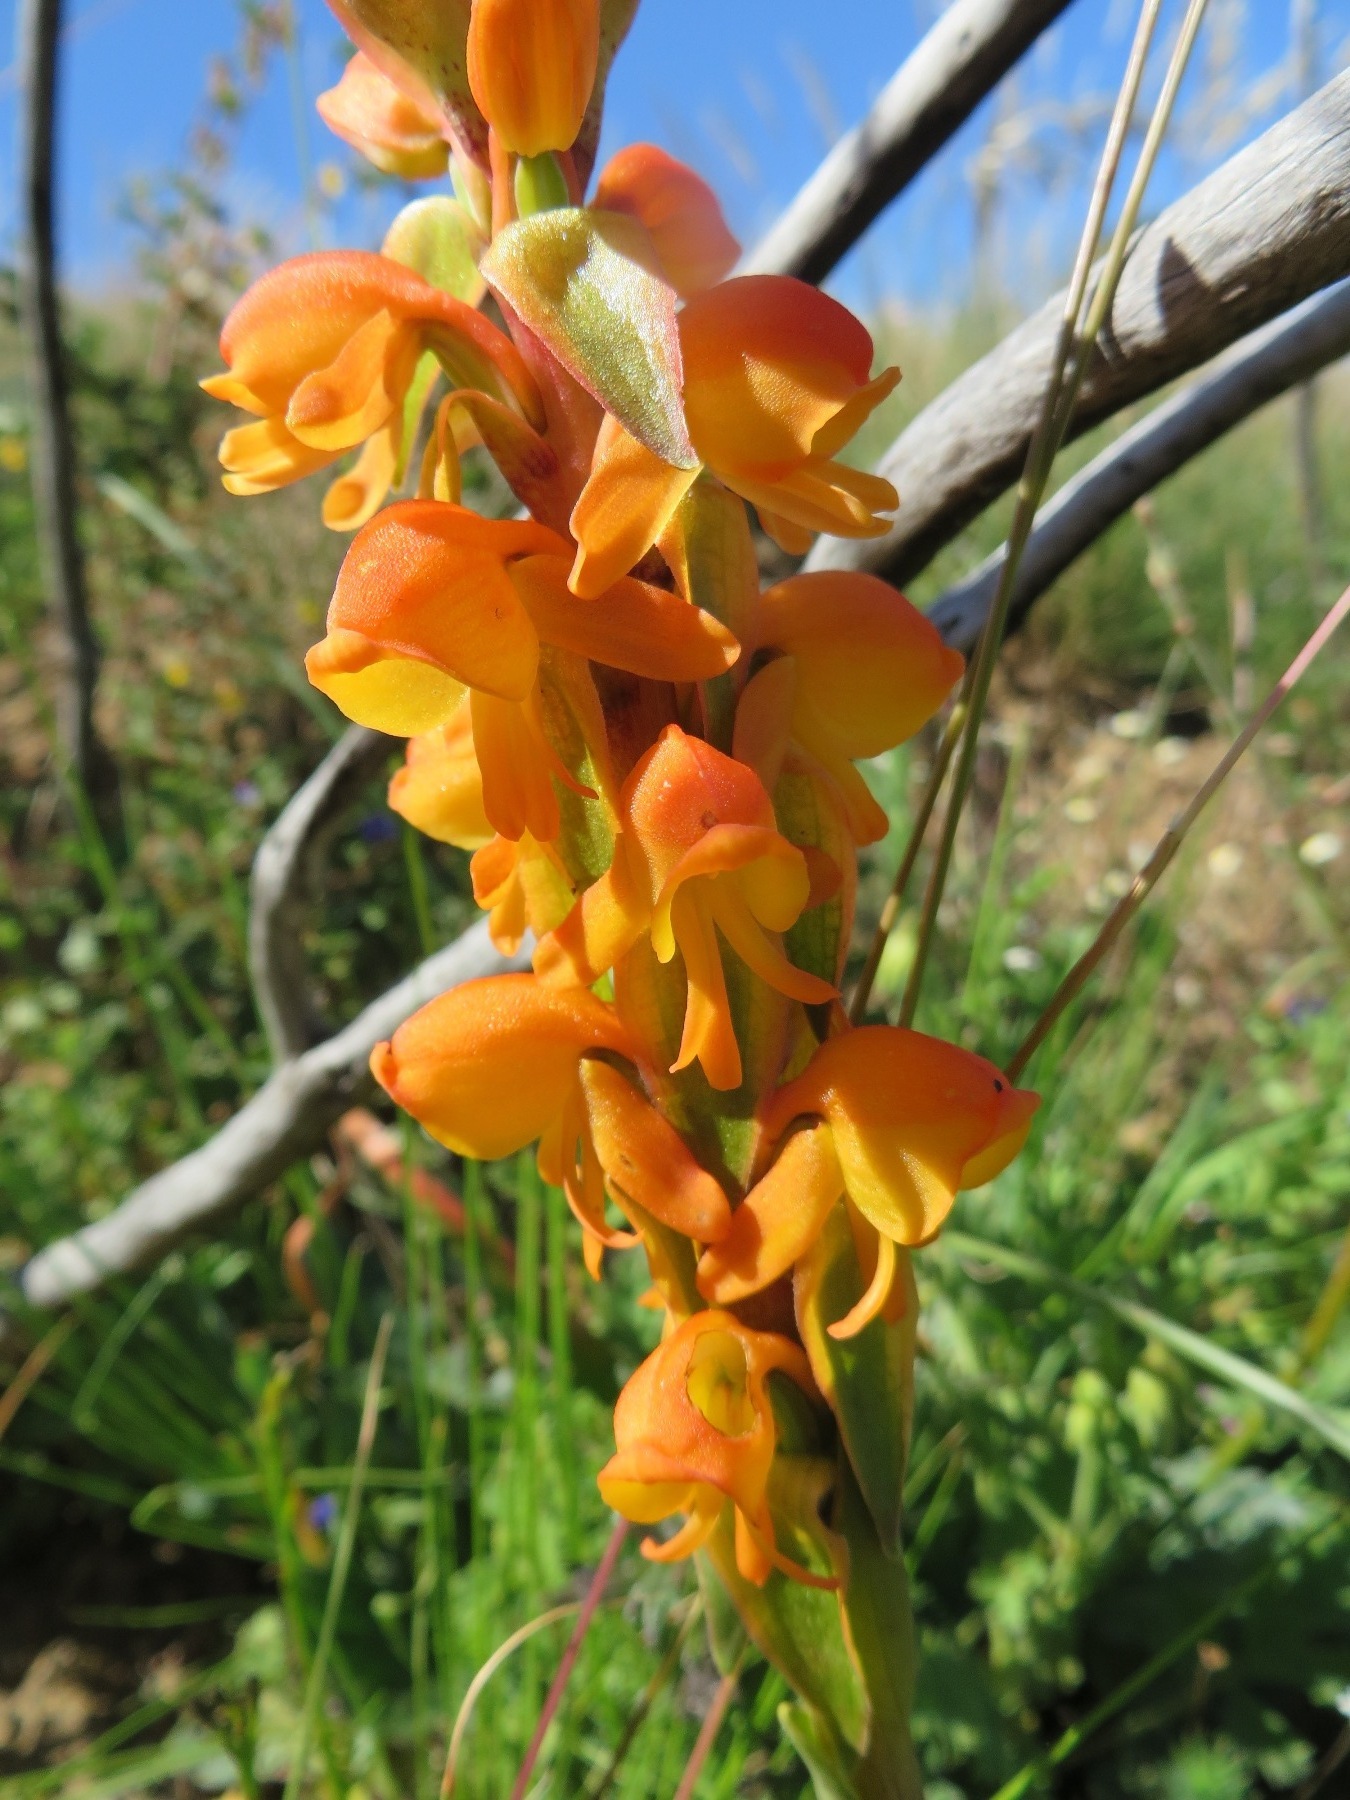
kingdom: Plantae
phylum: Tracheophyta
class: Liliopsida
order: Asparagales
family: Orchidaceae
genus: Satyrium
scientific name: Satyrium coriifolium
